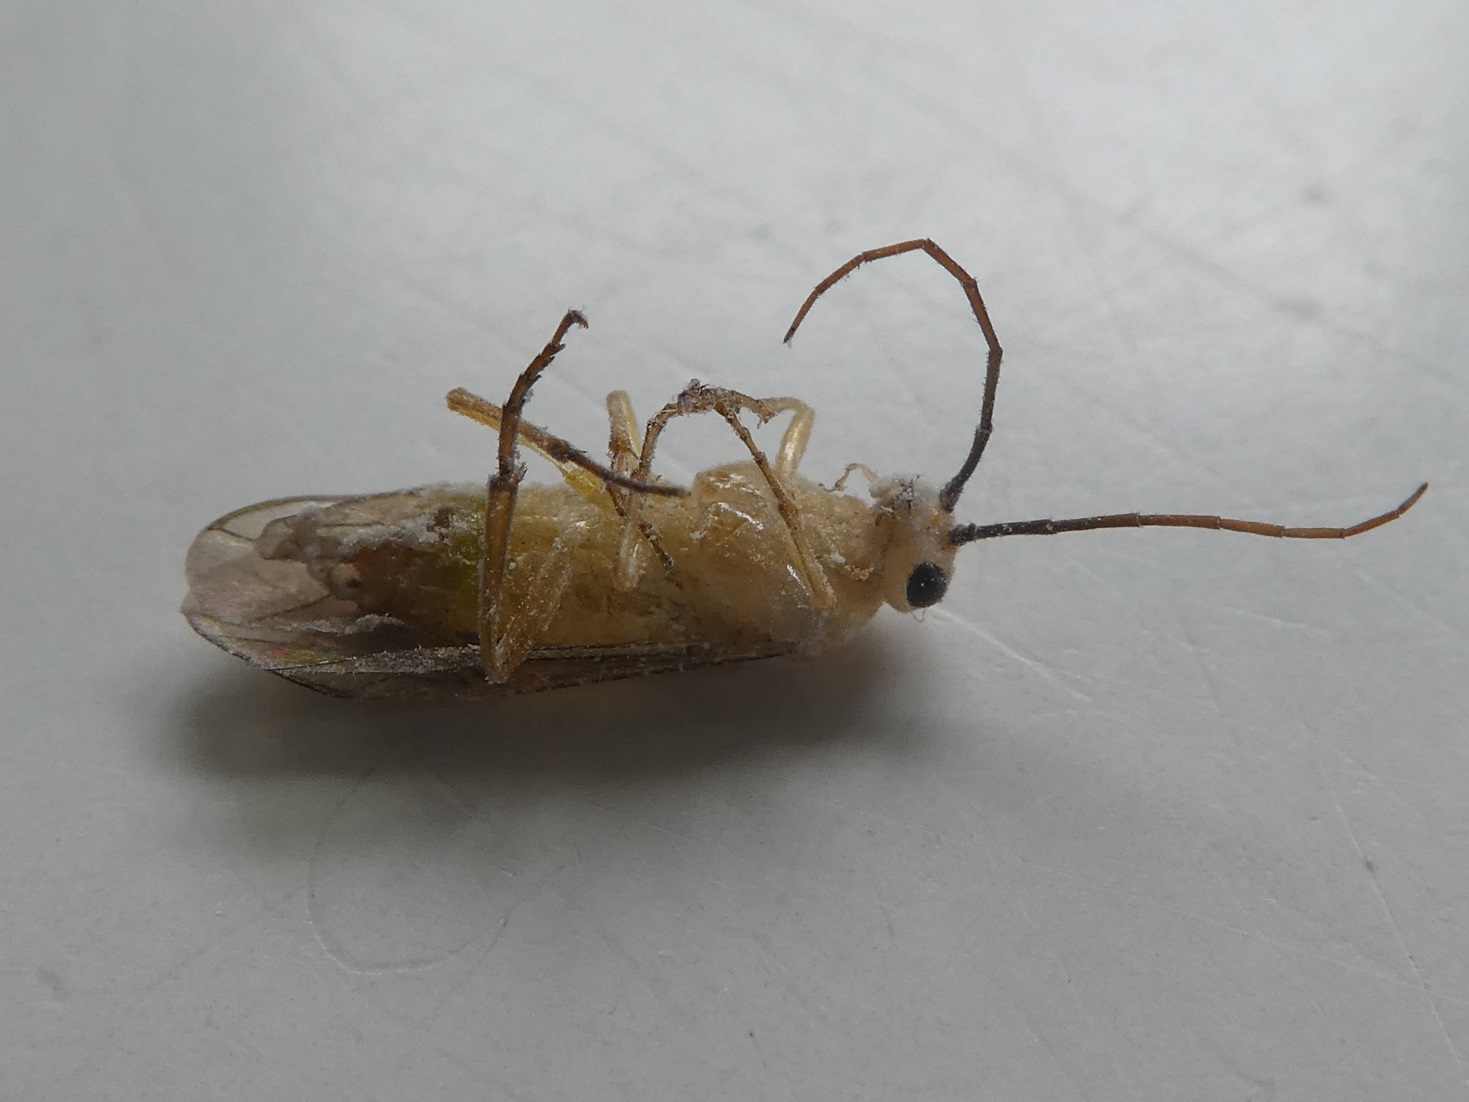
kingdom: Animalia
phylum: Arthropoda
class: Insecta
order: Hymenoptera
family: Tenthredinidae
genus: Nematus
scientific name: Nematus respondens
